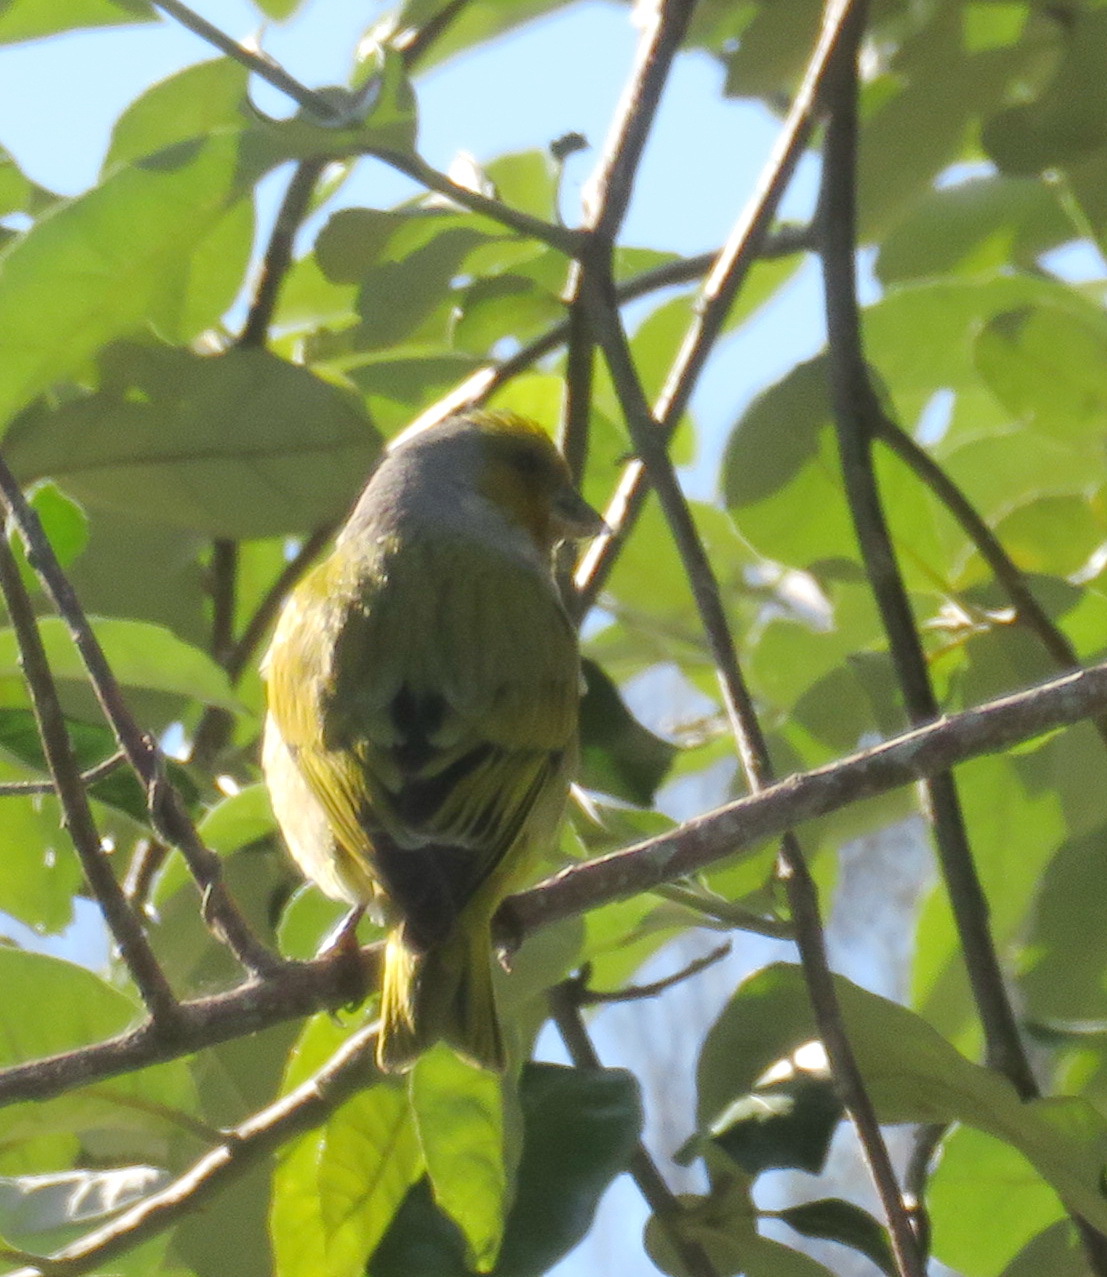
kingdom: Animalia
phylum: Chordata
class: Aves
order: Passeriformes
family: Fringillidae
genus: Serinus
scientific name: Serinus canicollis
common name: Cape canary
